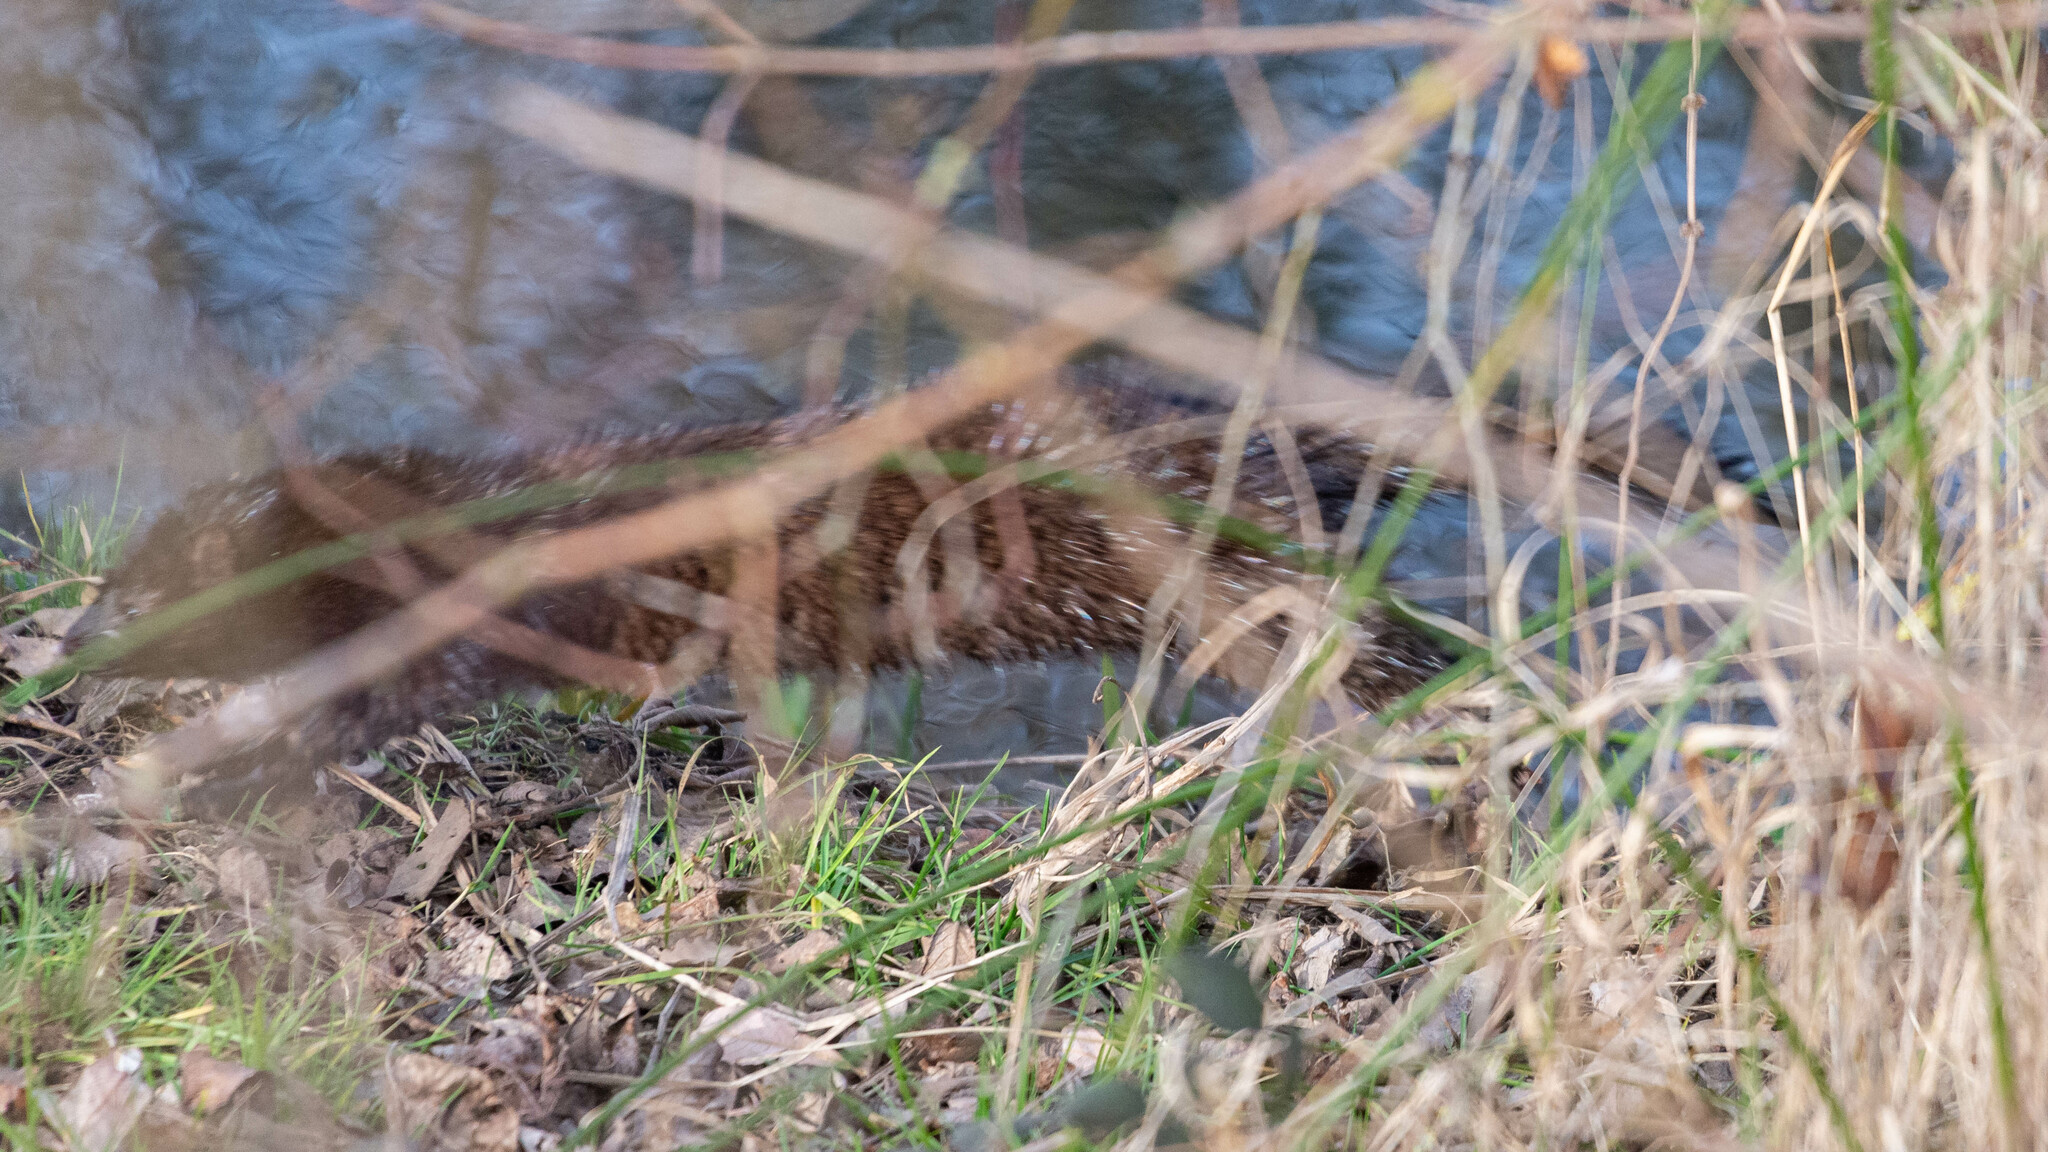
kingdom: Animalia
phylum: Chordata
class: Mammalia
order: Carnivora
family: Mustelidae
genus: Mustela
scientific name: Mustela
